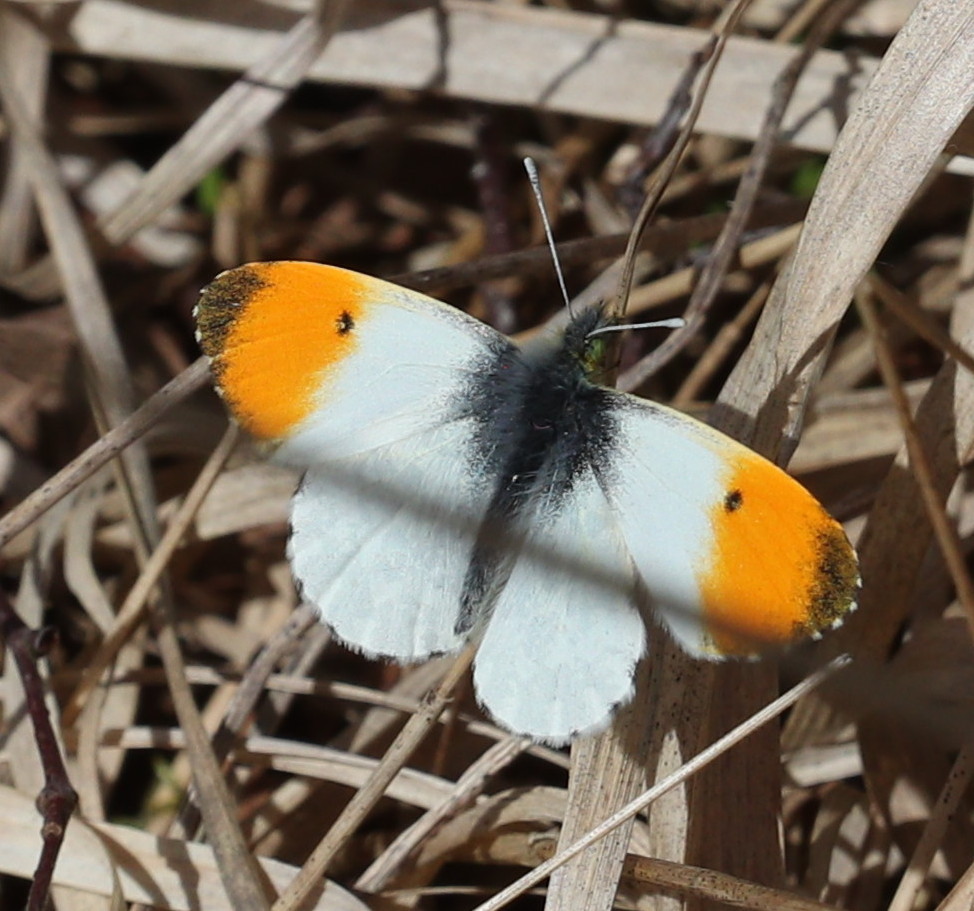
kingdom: Animalia
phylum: Arthropoda
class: Insecta
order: Lepidoptera
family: Pieridae
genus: Anthocharis
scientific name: Anthocharis cardamines
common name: Orange-tip
